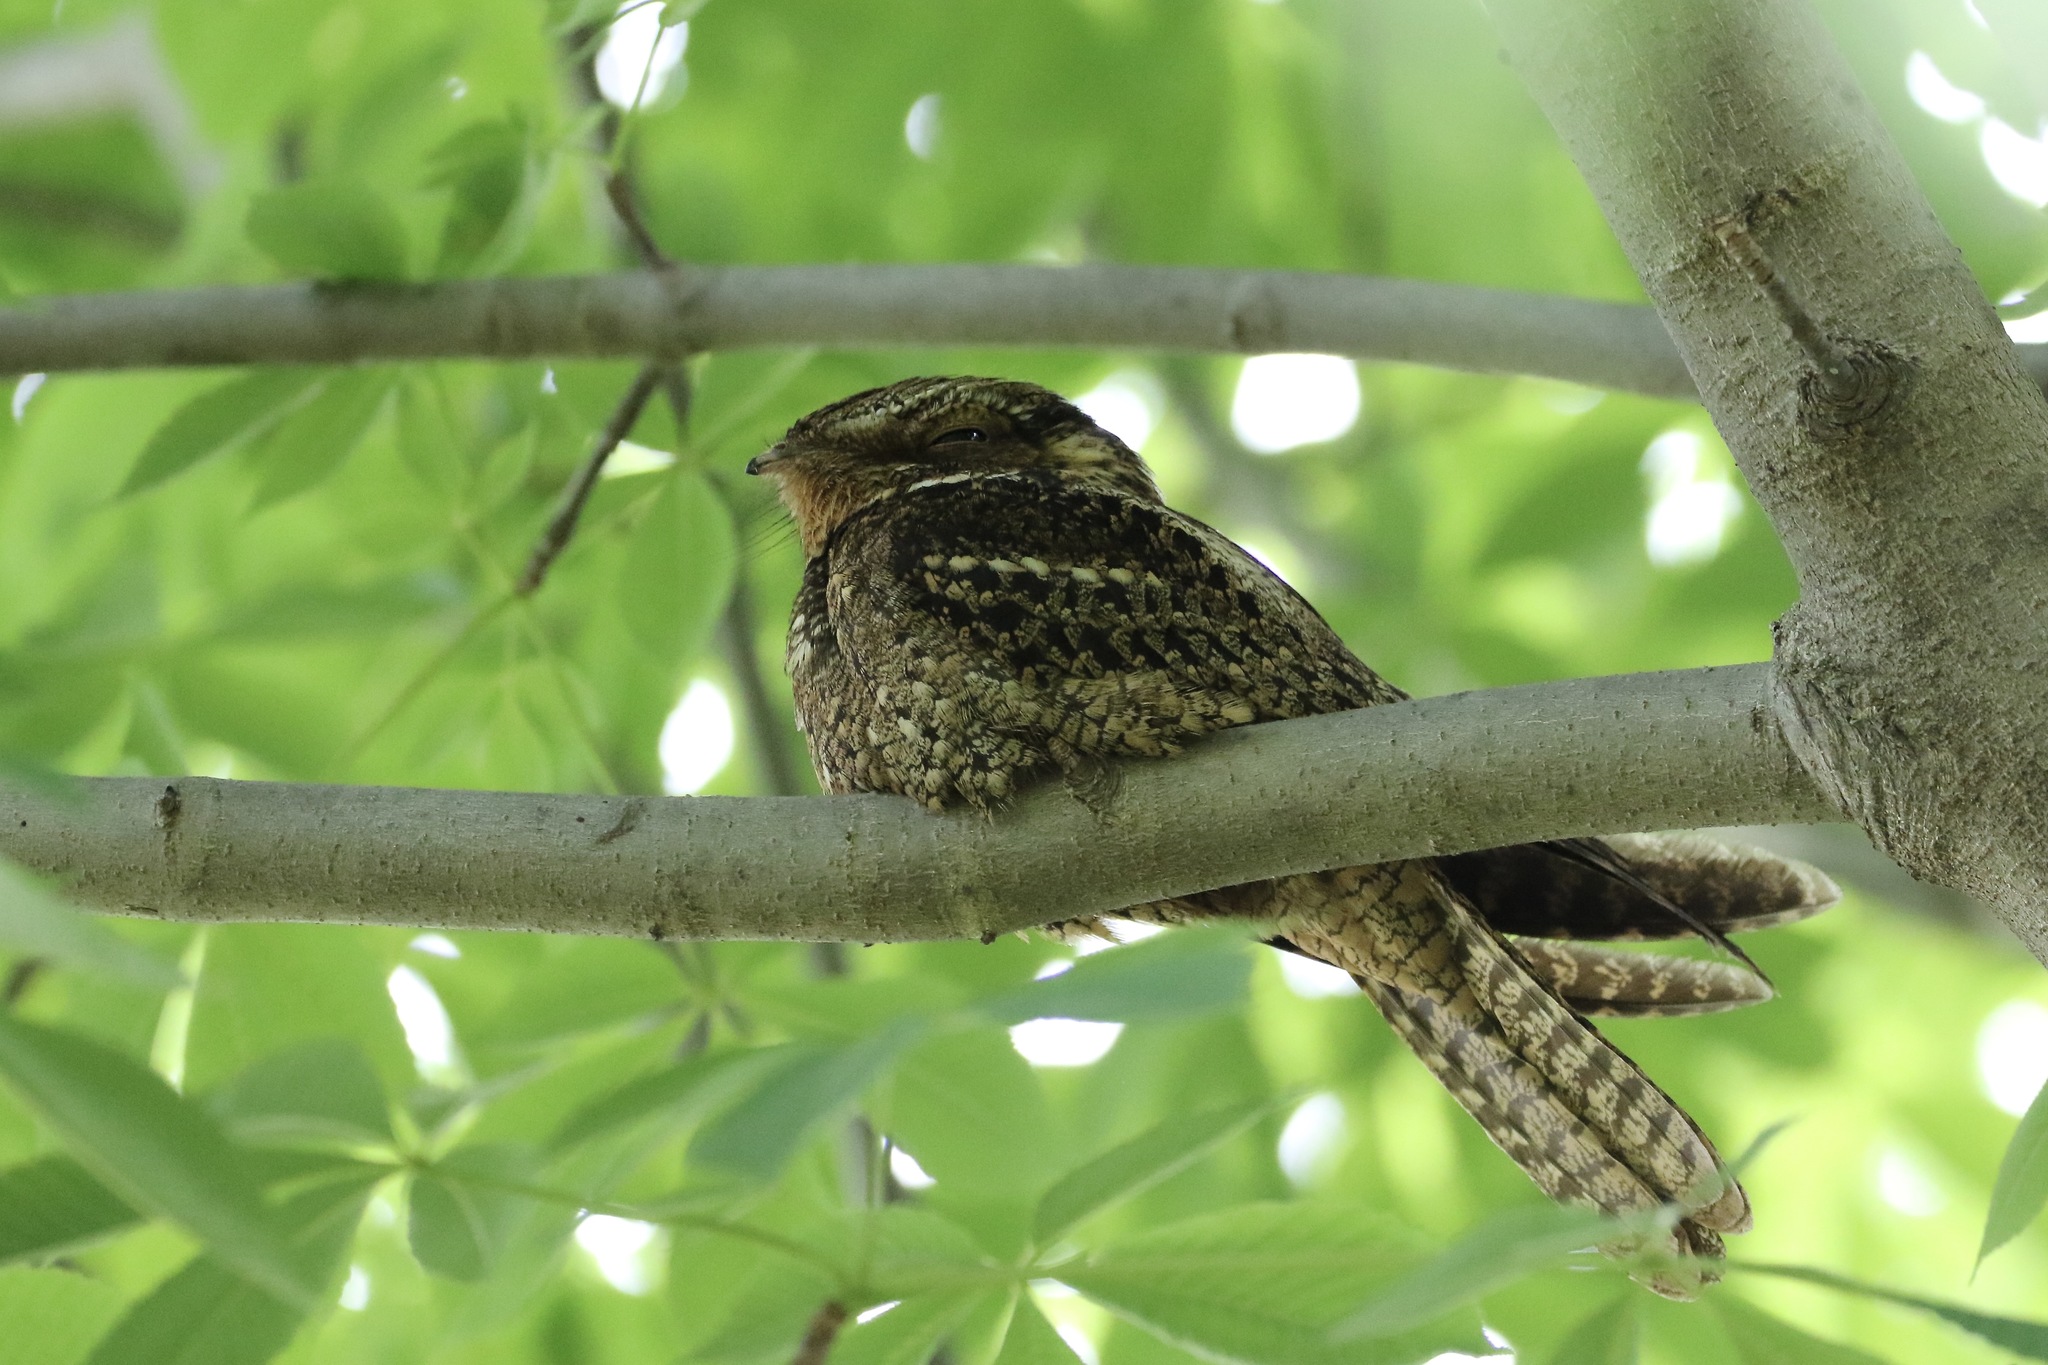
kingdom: Animalia
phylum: Chordata
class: Aves
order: Caprimulgiformes
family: Caprimulgidae
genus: Antrostomus
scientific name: Antrostomus carolinensis
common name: Chuck-will's-widow
